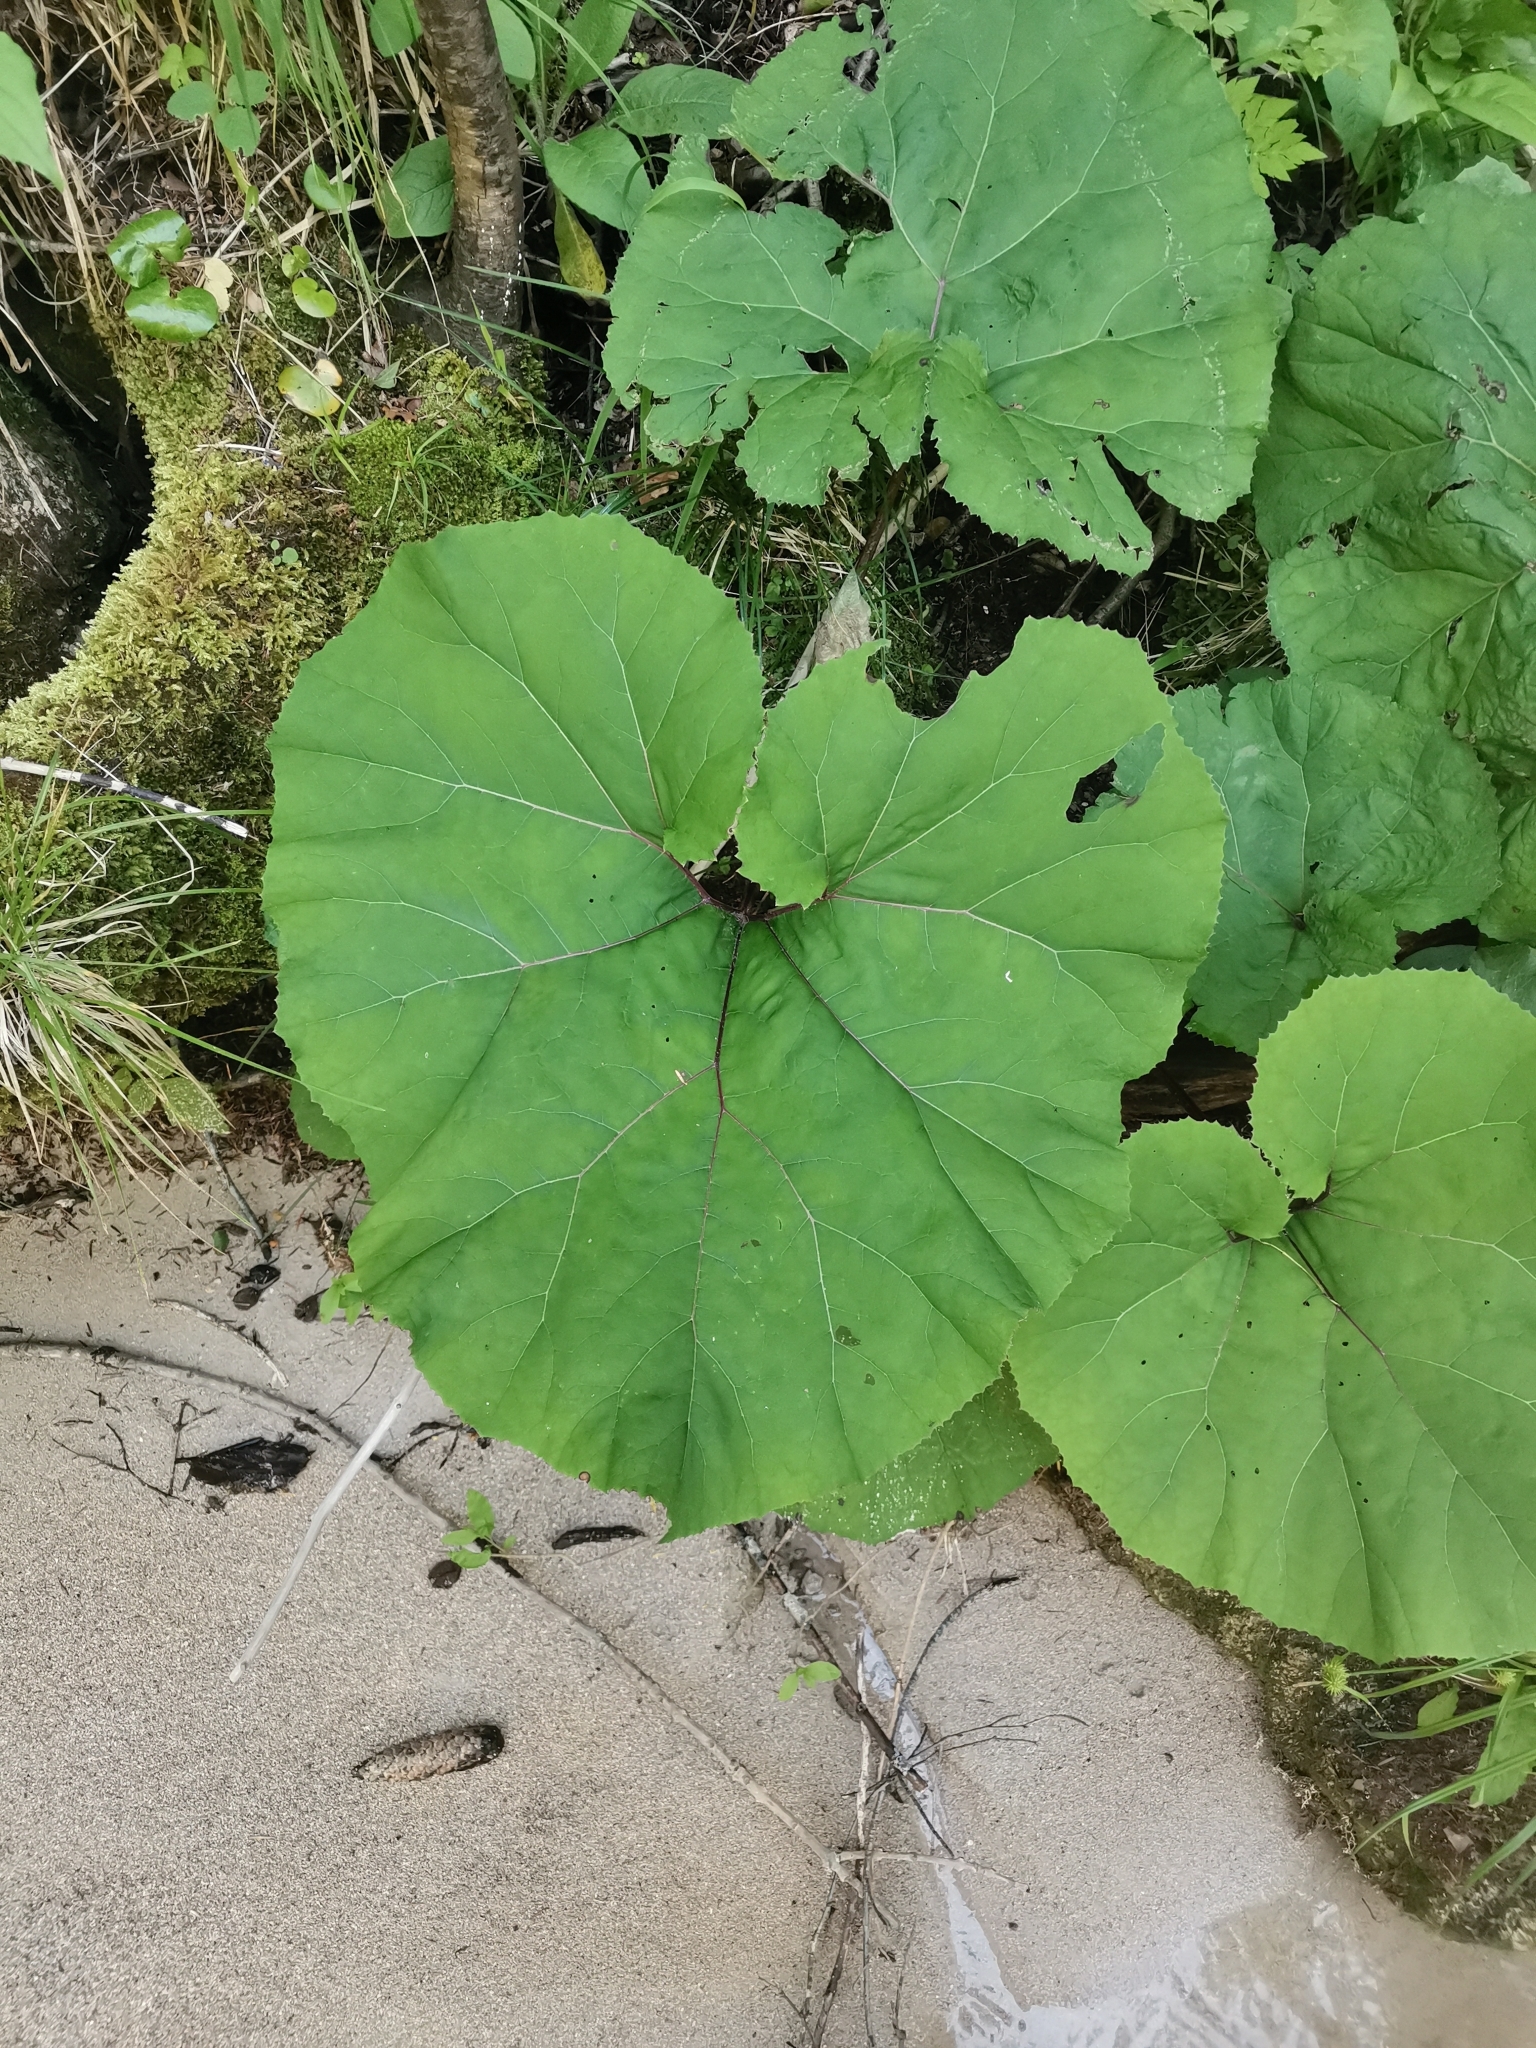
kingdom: Plantae
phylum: Tracheophyta
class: Magnoliopsida
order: Asterales
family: Asteraceae
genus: Petasites
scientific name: Petasites hybridus
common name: Butterbur
